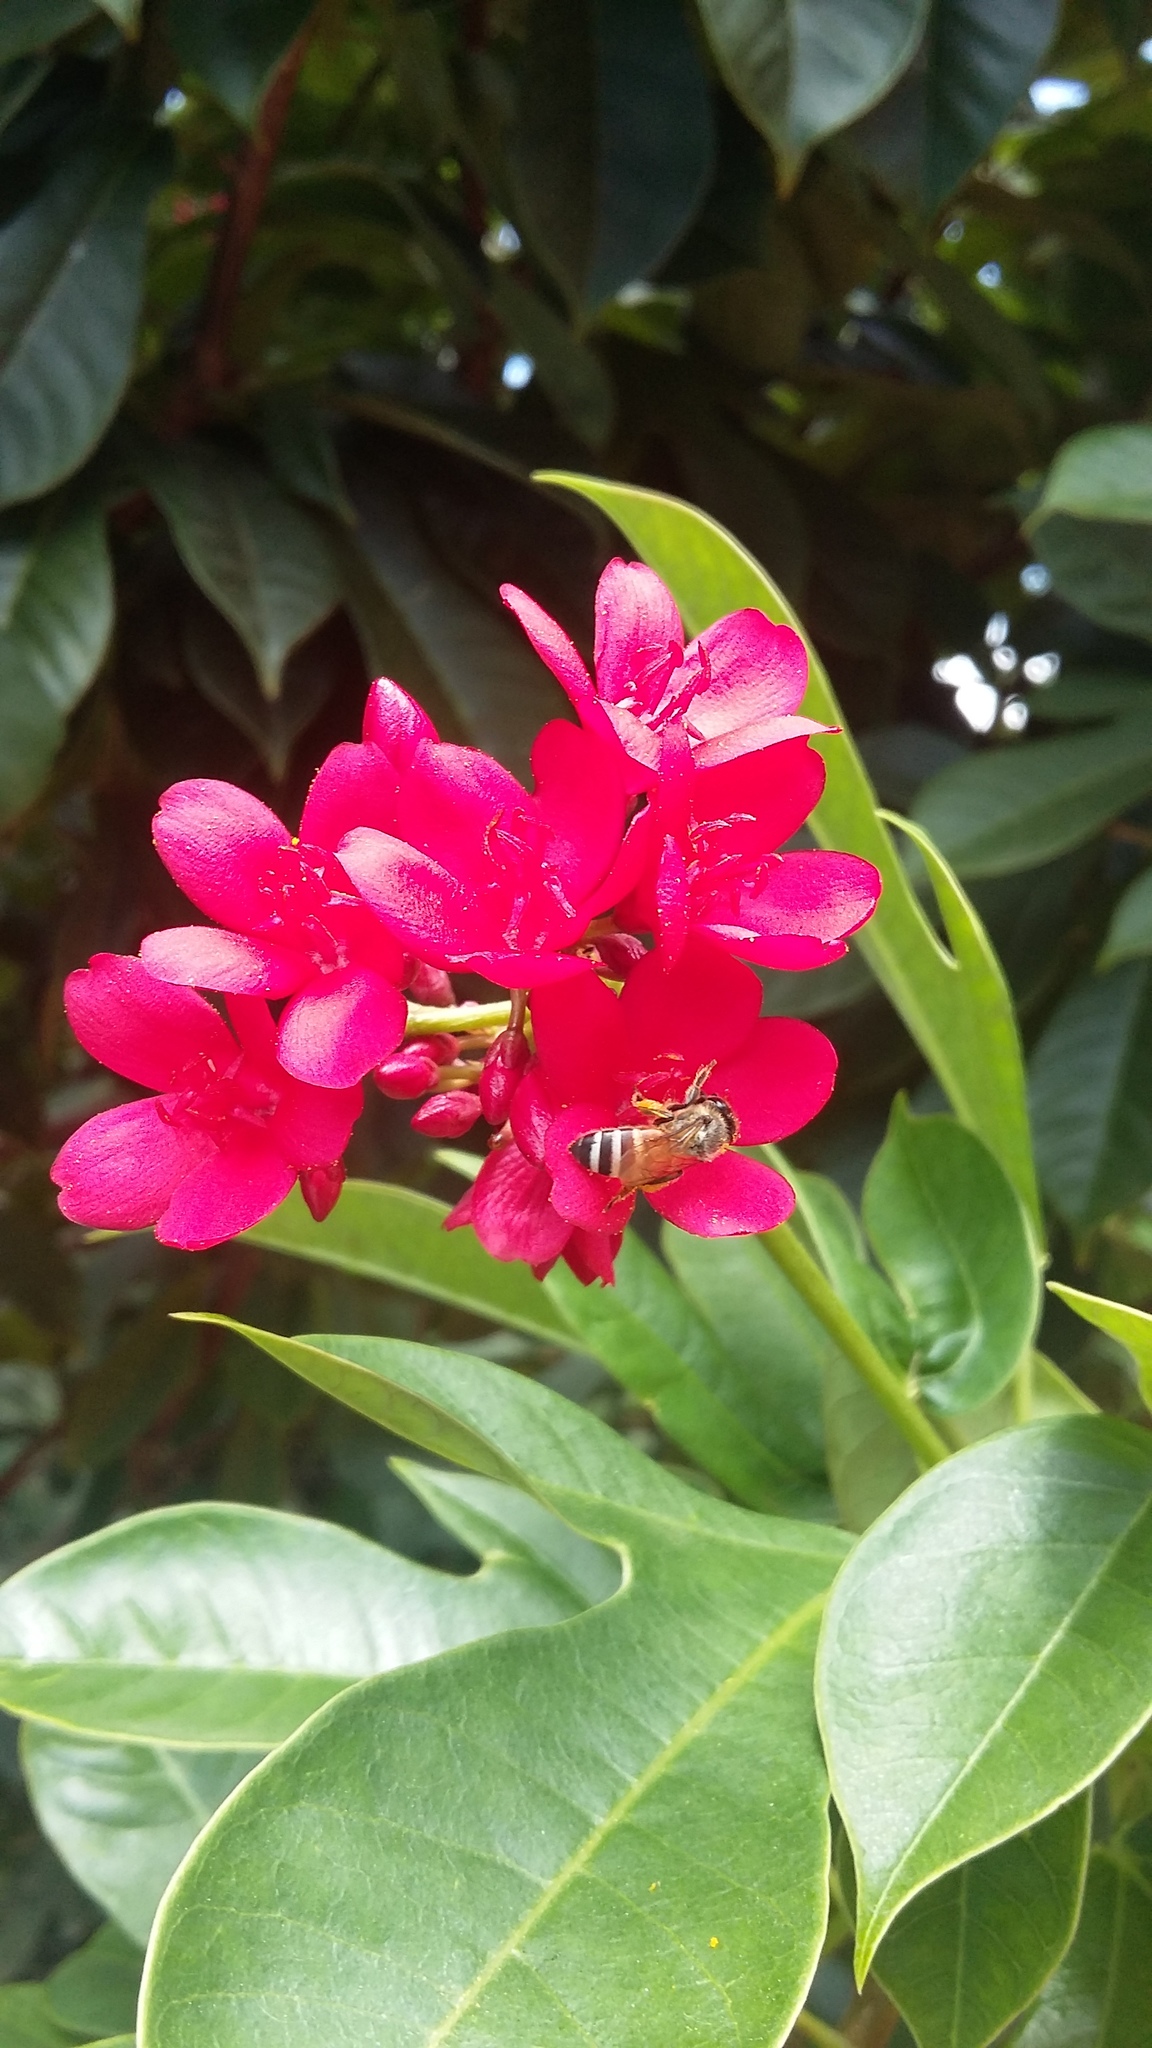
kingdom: Animalia
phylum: Arthropoda
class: Insecta
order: Hymenoptera
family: Apidae
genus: Apis
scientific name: Apis florea
